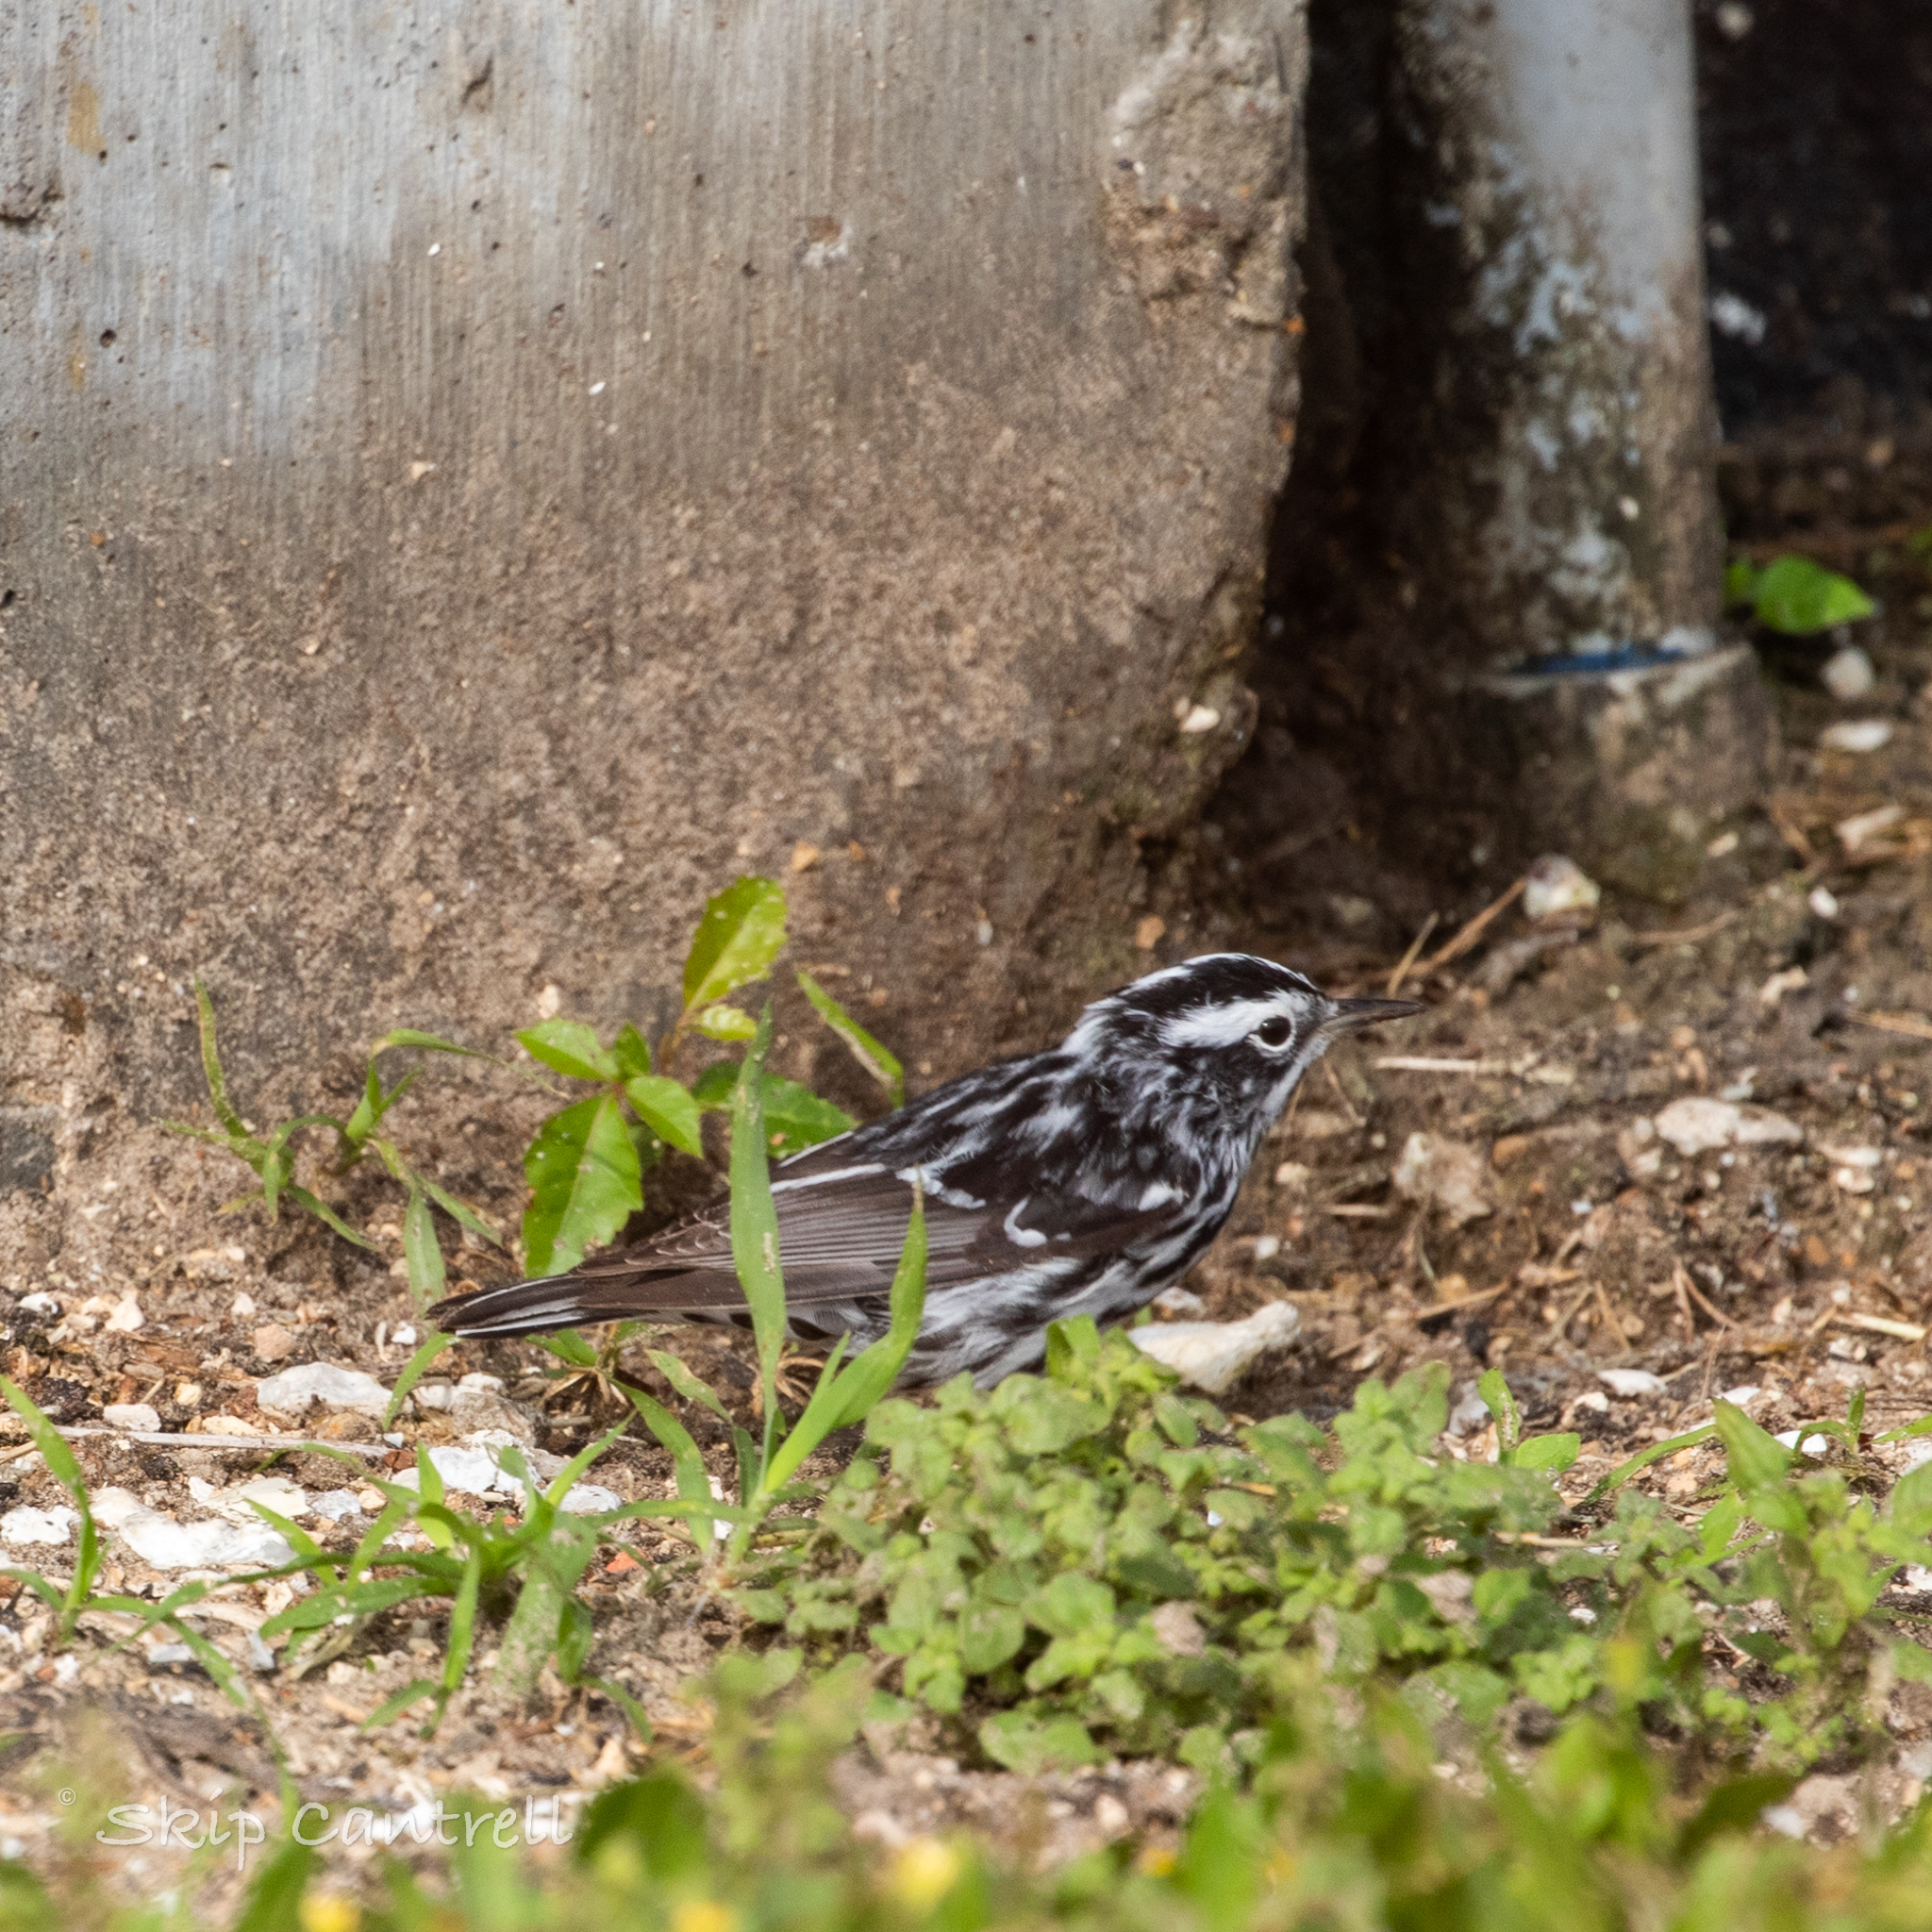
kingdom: Animalia
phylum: Chordata
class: Aves
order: Passeriformes
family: Parulidae
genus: Mniotilta
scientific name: Mniotilta varia
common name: Black-and-white warbler
